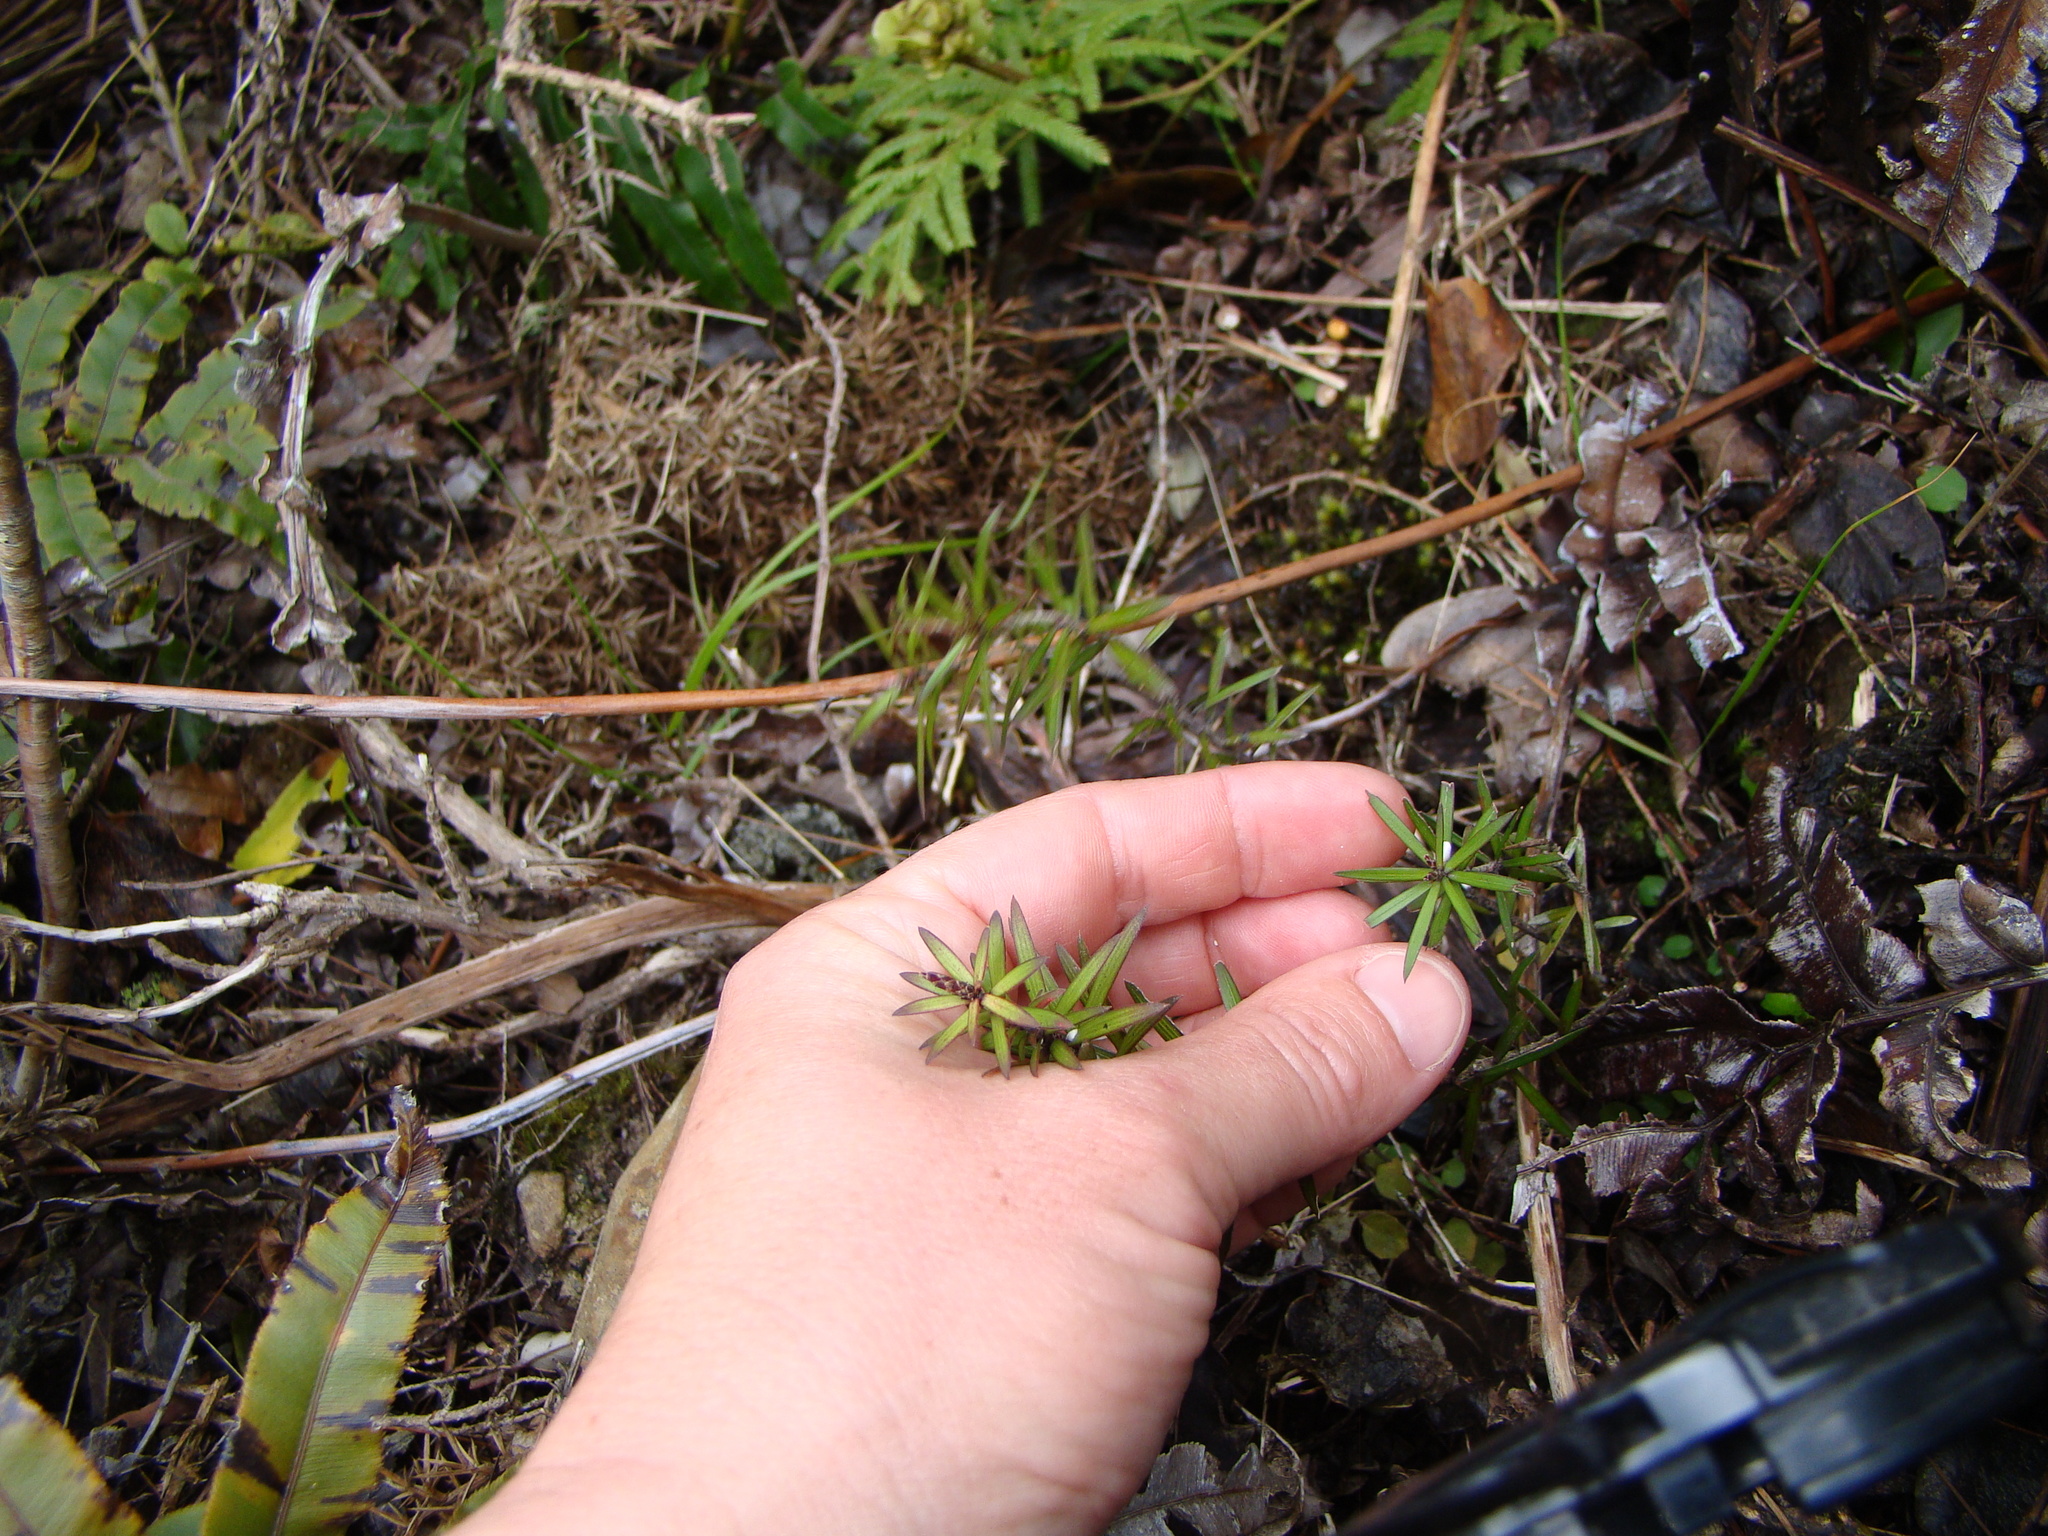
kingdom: Plantae
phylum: Tracheophyta
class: Magnoliopsida
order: Ericales
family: Ericaceae
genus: Leucopogon
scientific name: Leucopogon fasciculatus
